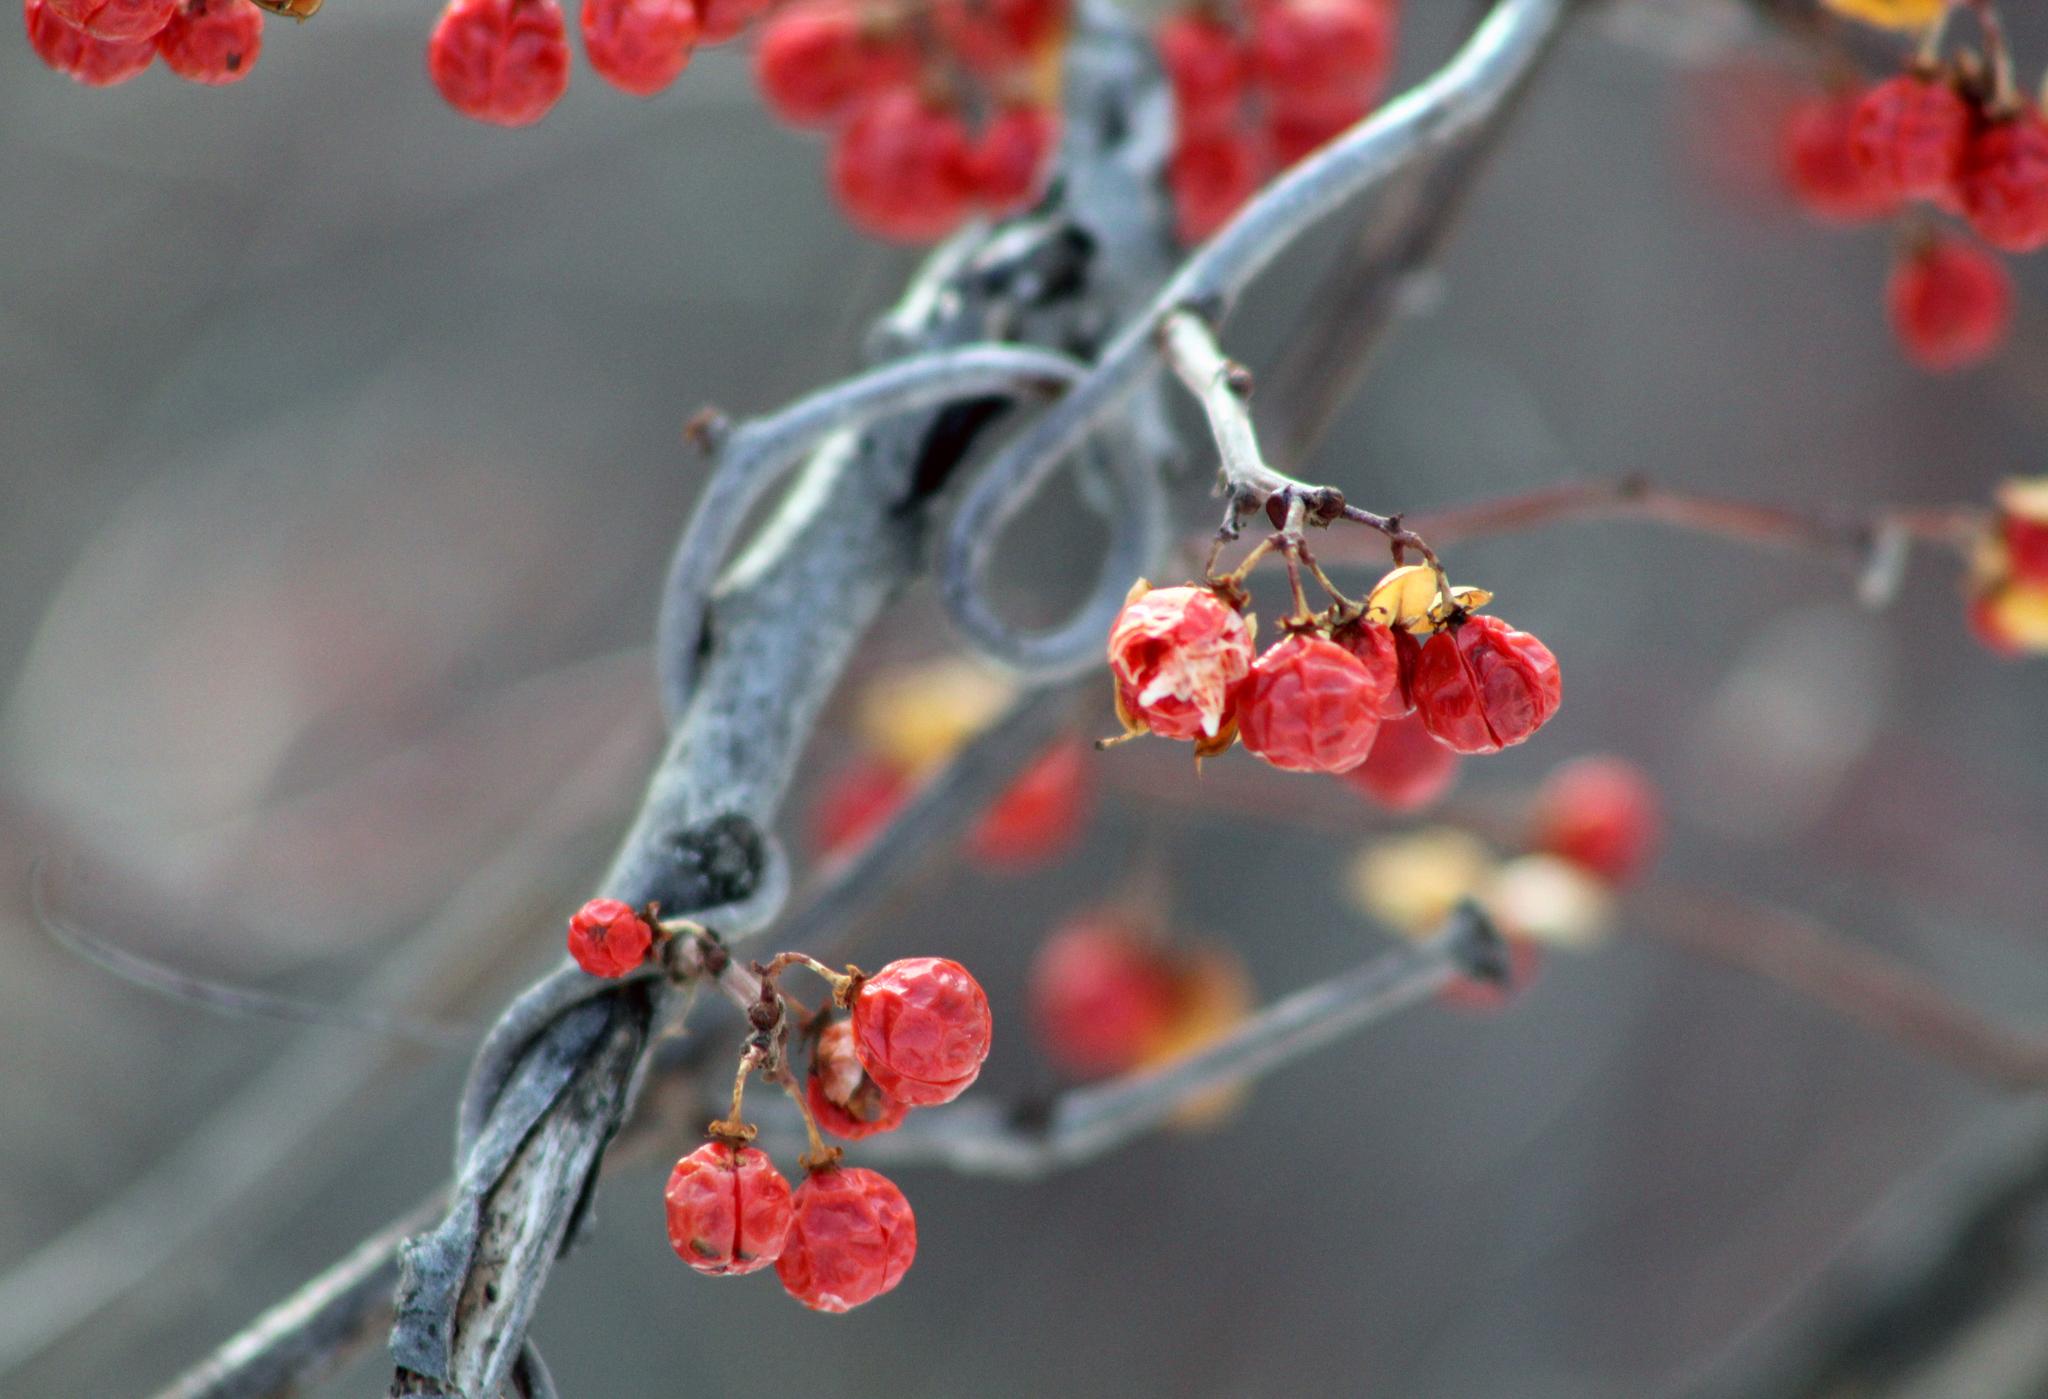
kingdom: Plantae
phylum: Tracheophyta
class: Magnoliopsida
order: Celastrales
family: Celastraceae
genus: Celastrus
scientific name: Celastrus orbiculatus
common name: Oriental bittersweet
